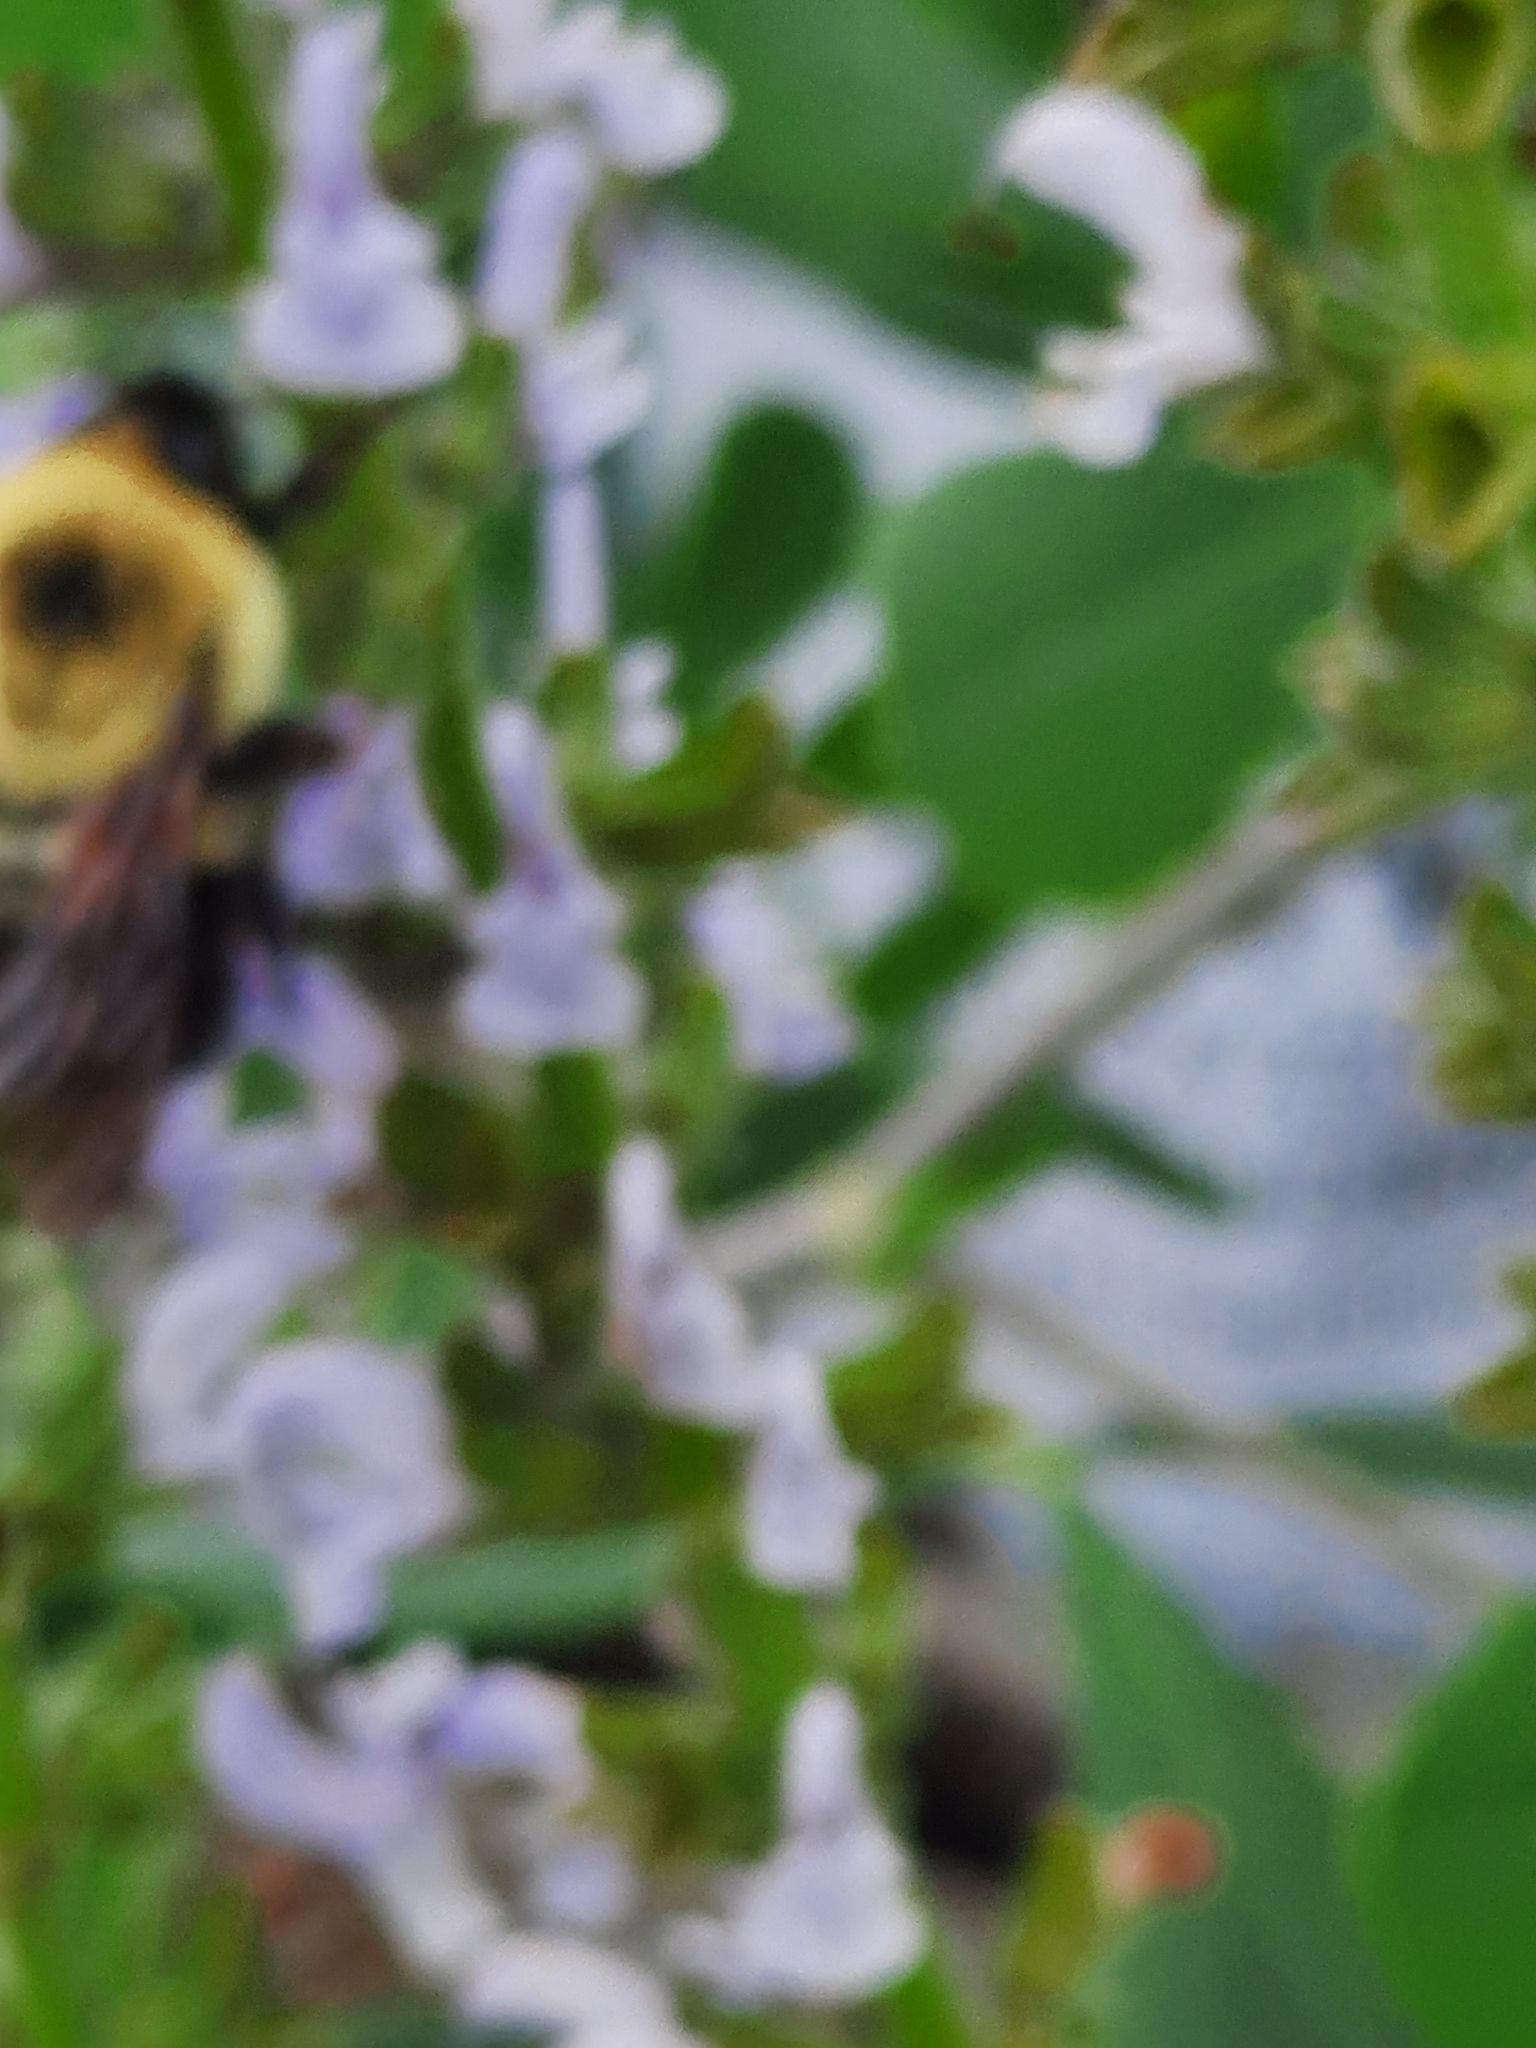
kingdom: Animalia
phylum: Arthropoda
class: Insecta
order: Hymenoptera
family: Apidae
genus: Bombus
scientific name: Bombus bimaculatus
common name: Two-spotted bumble bee
